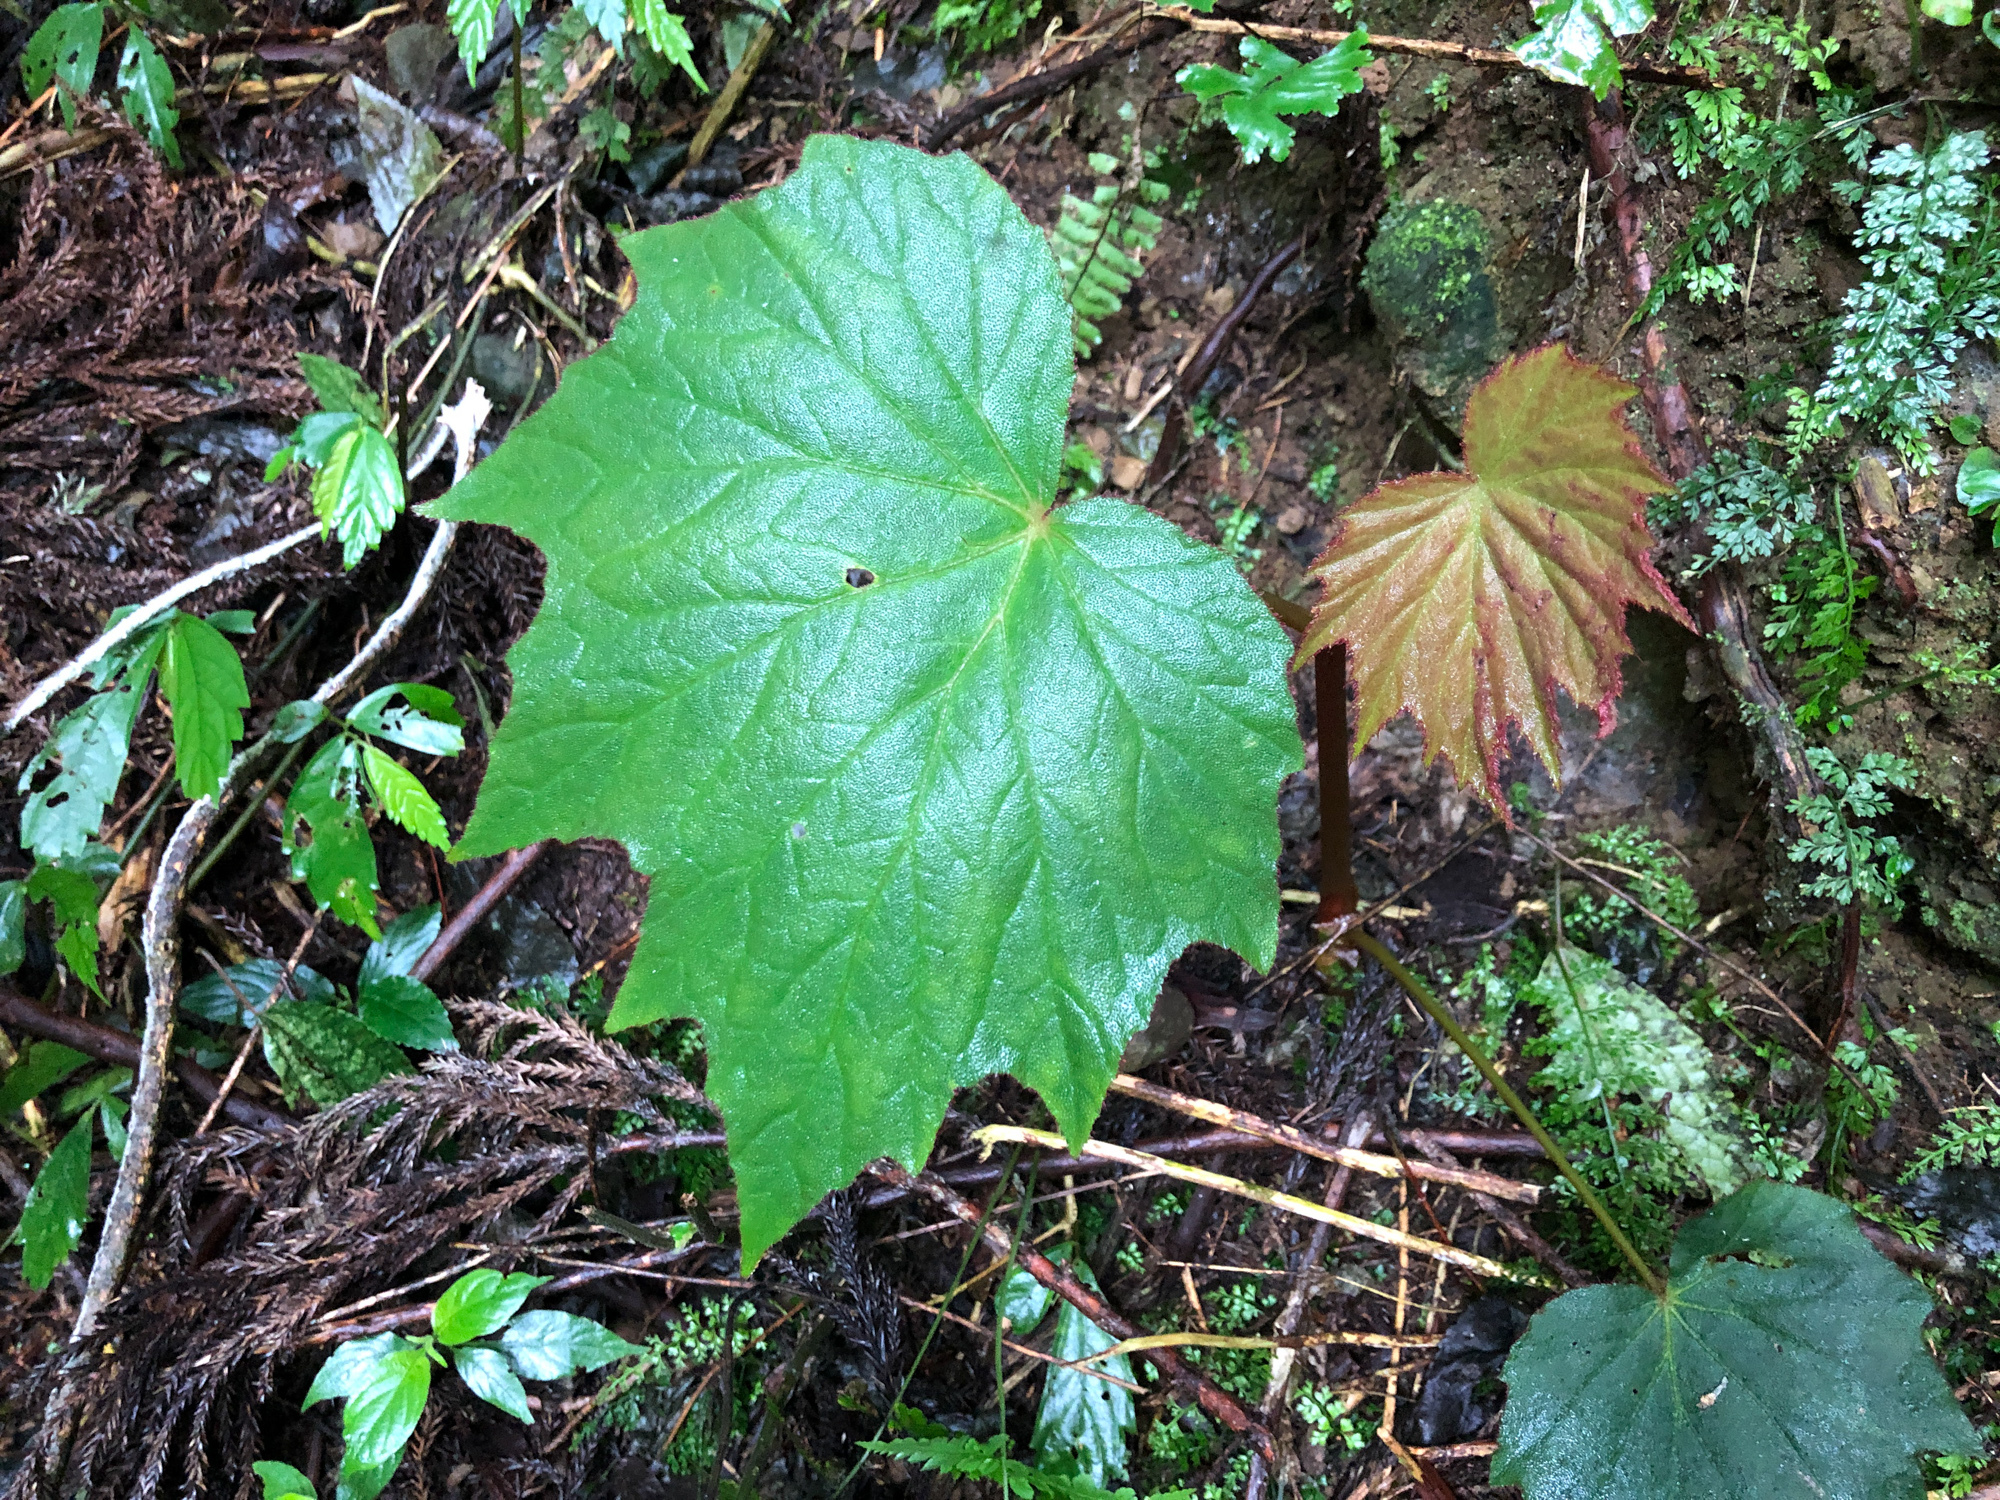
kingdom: Plantae
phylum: Tracheophyta
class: Magnoliopsida
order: Cucurbitales
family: Begoniaceae
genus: Begonia
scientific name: Begonia palmata
